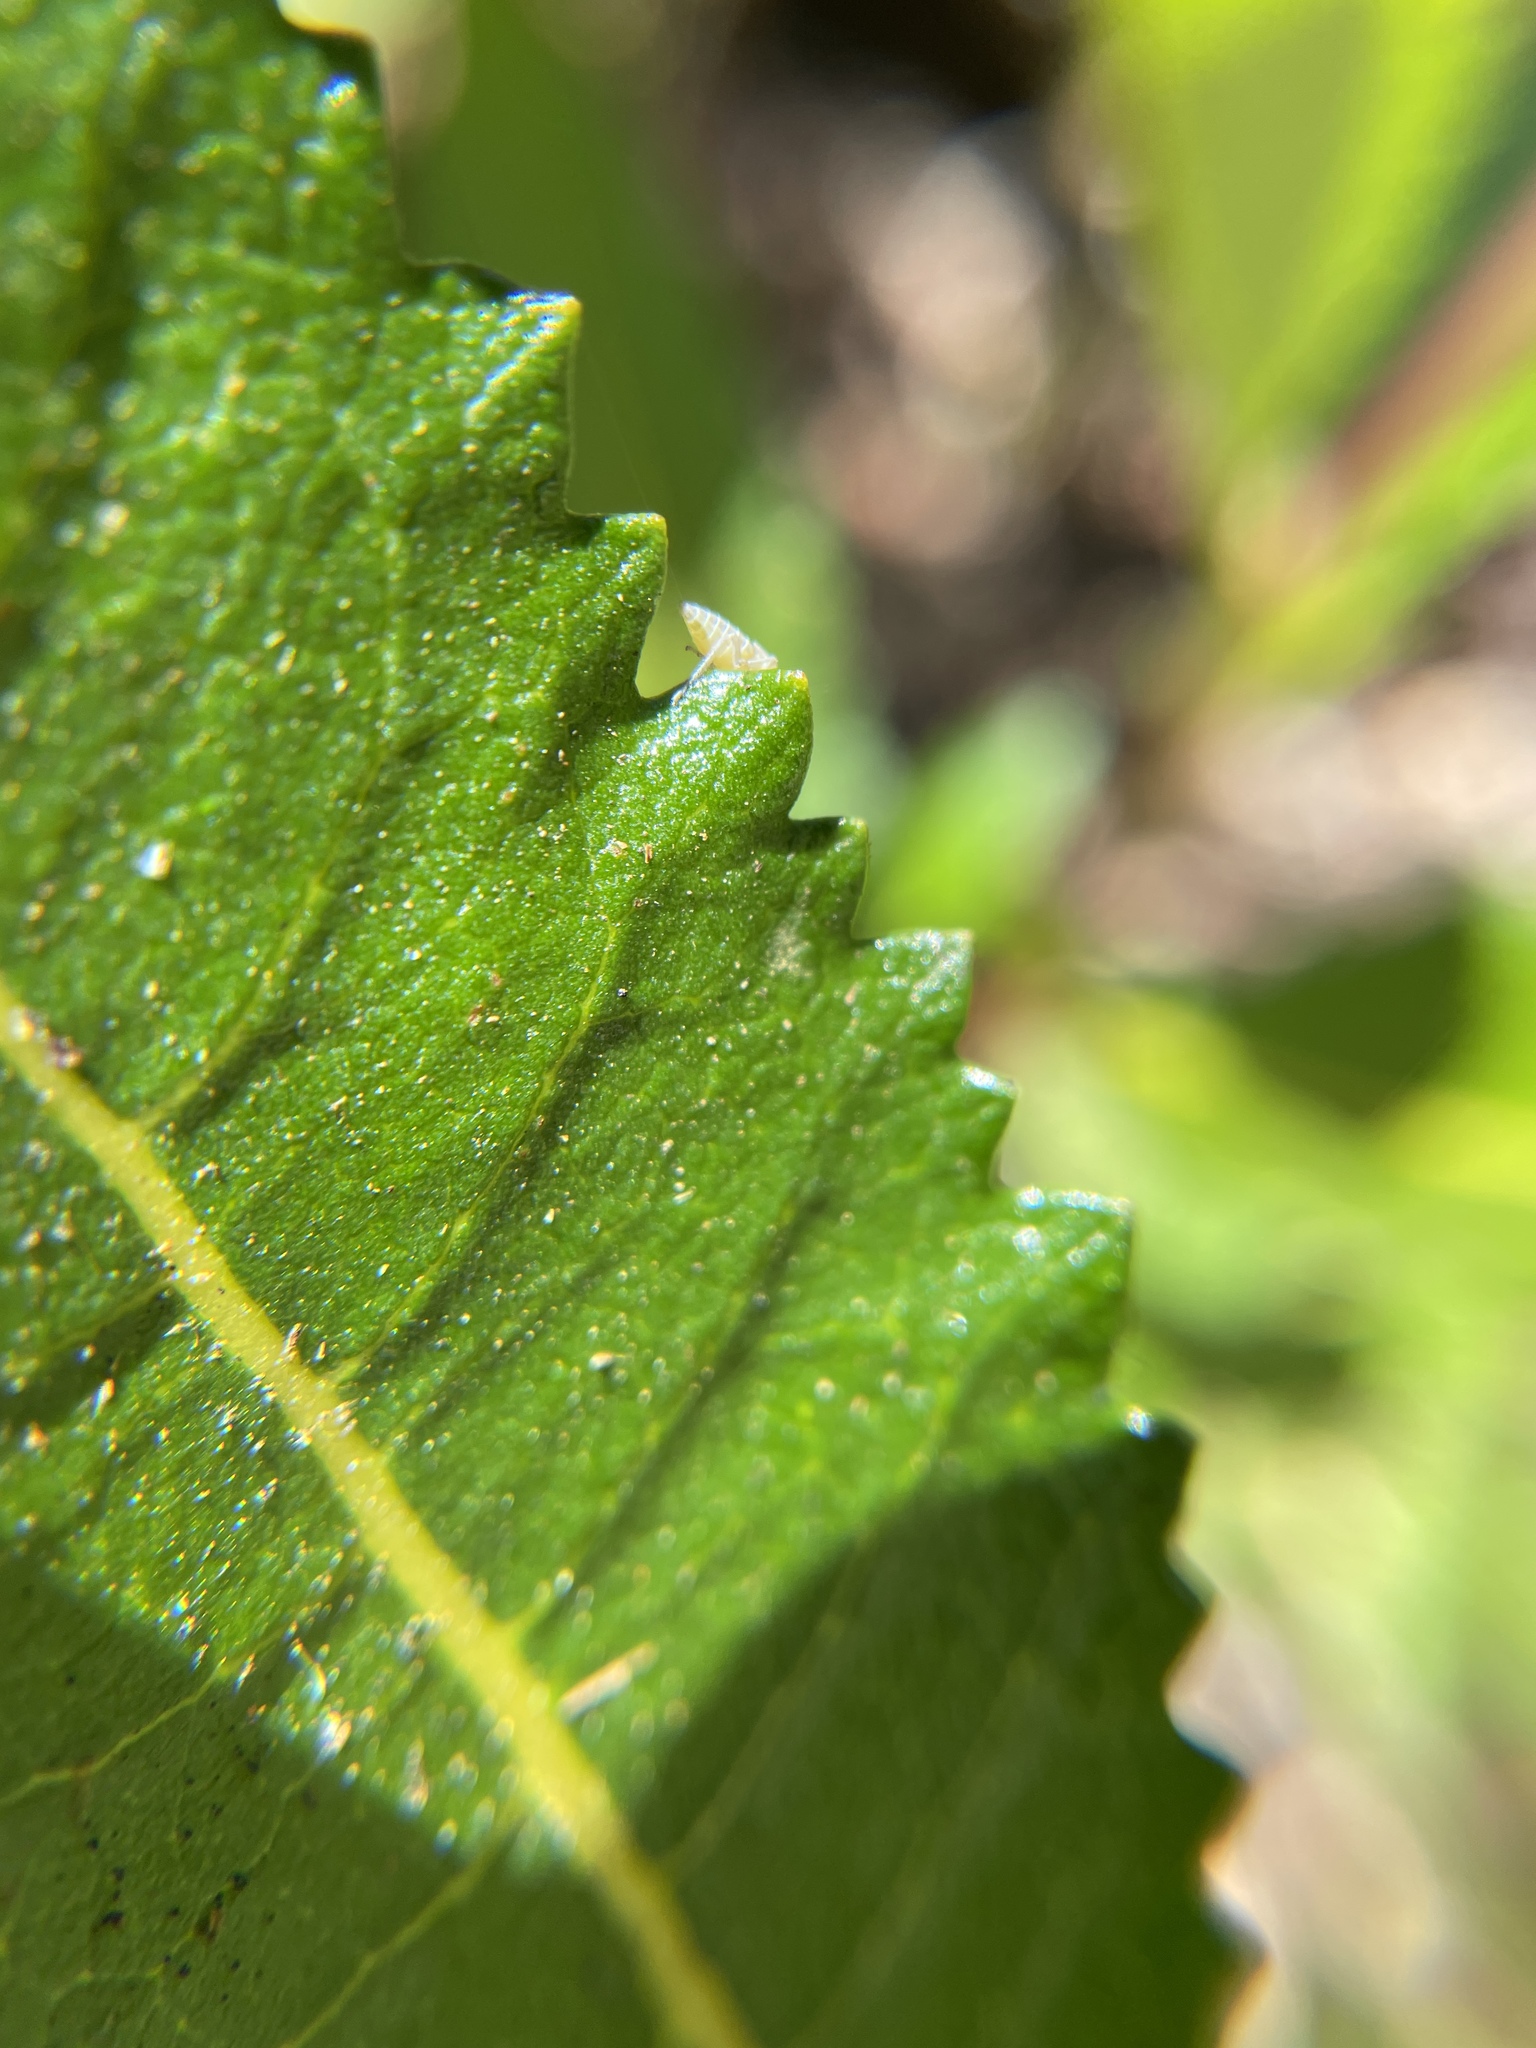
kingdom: Plantae
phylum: Tracheophyta
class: Magnoliopsida
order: Boraginales
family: Namaceae
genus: Eriodictyon
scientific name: Eriodictyon californicum
